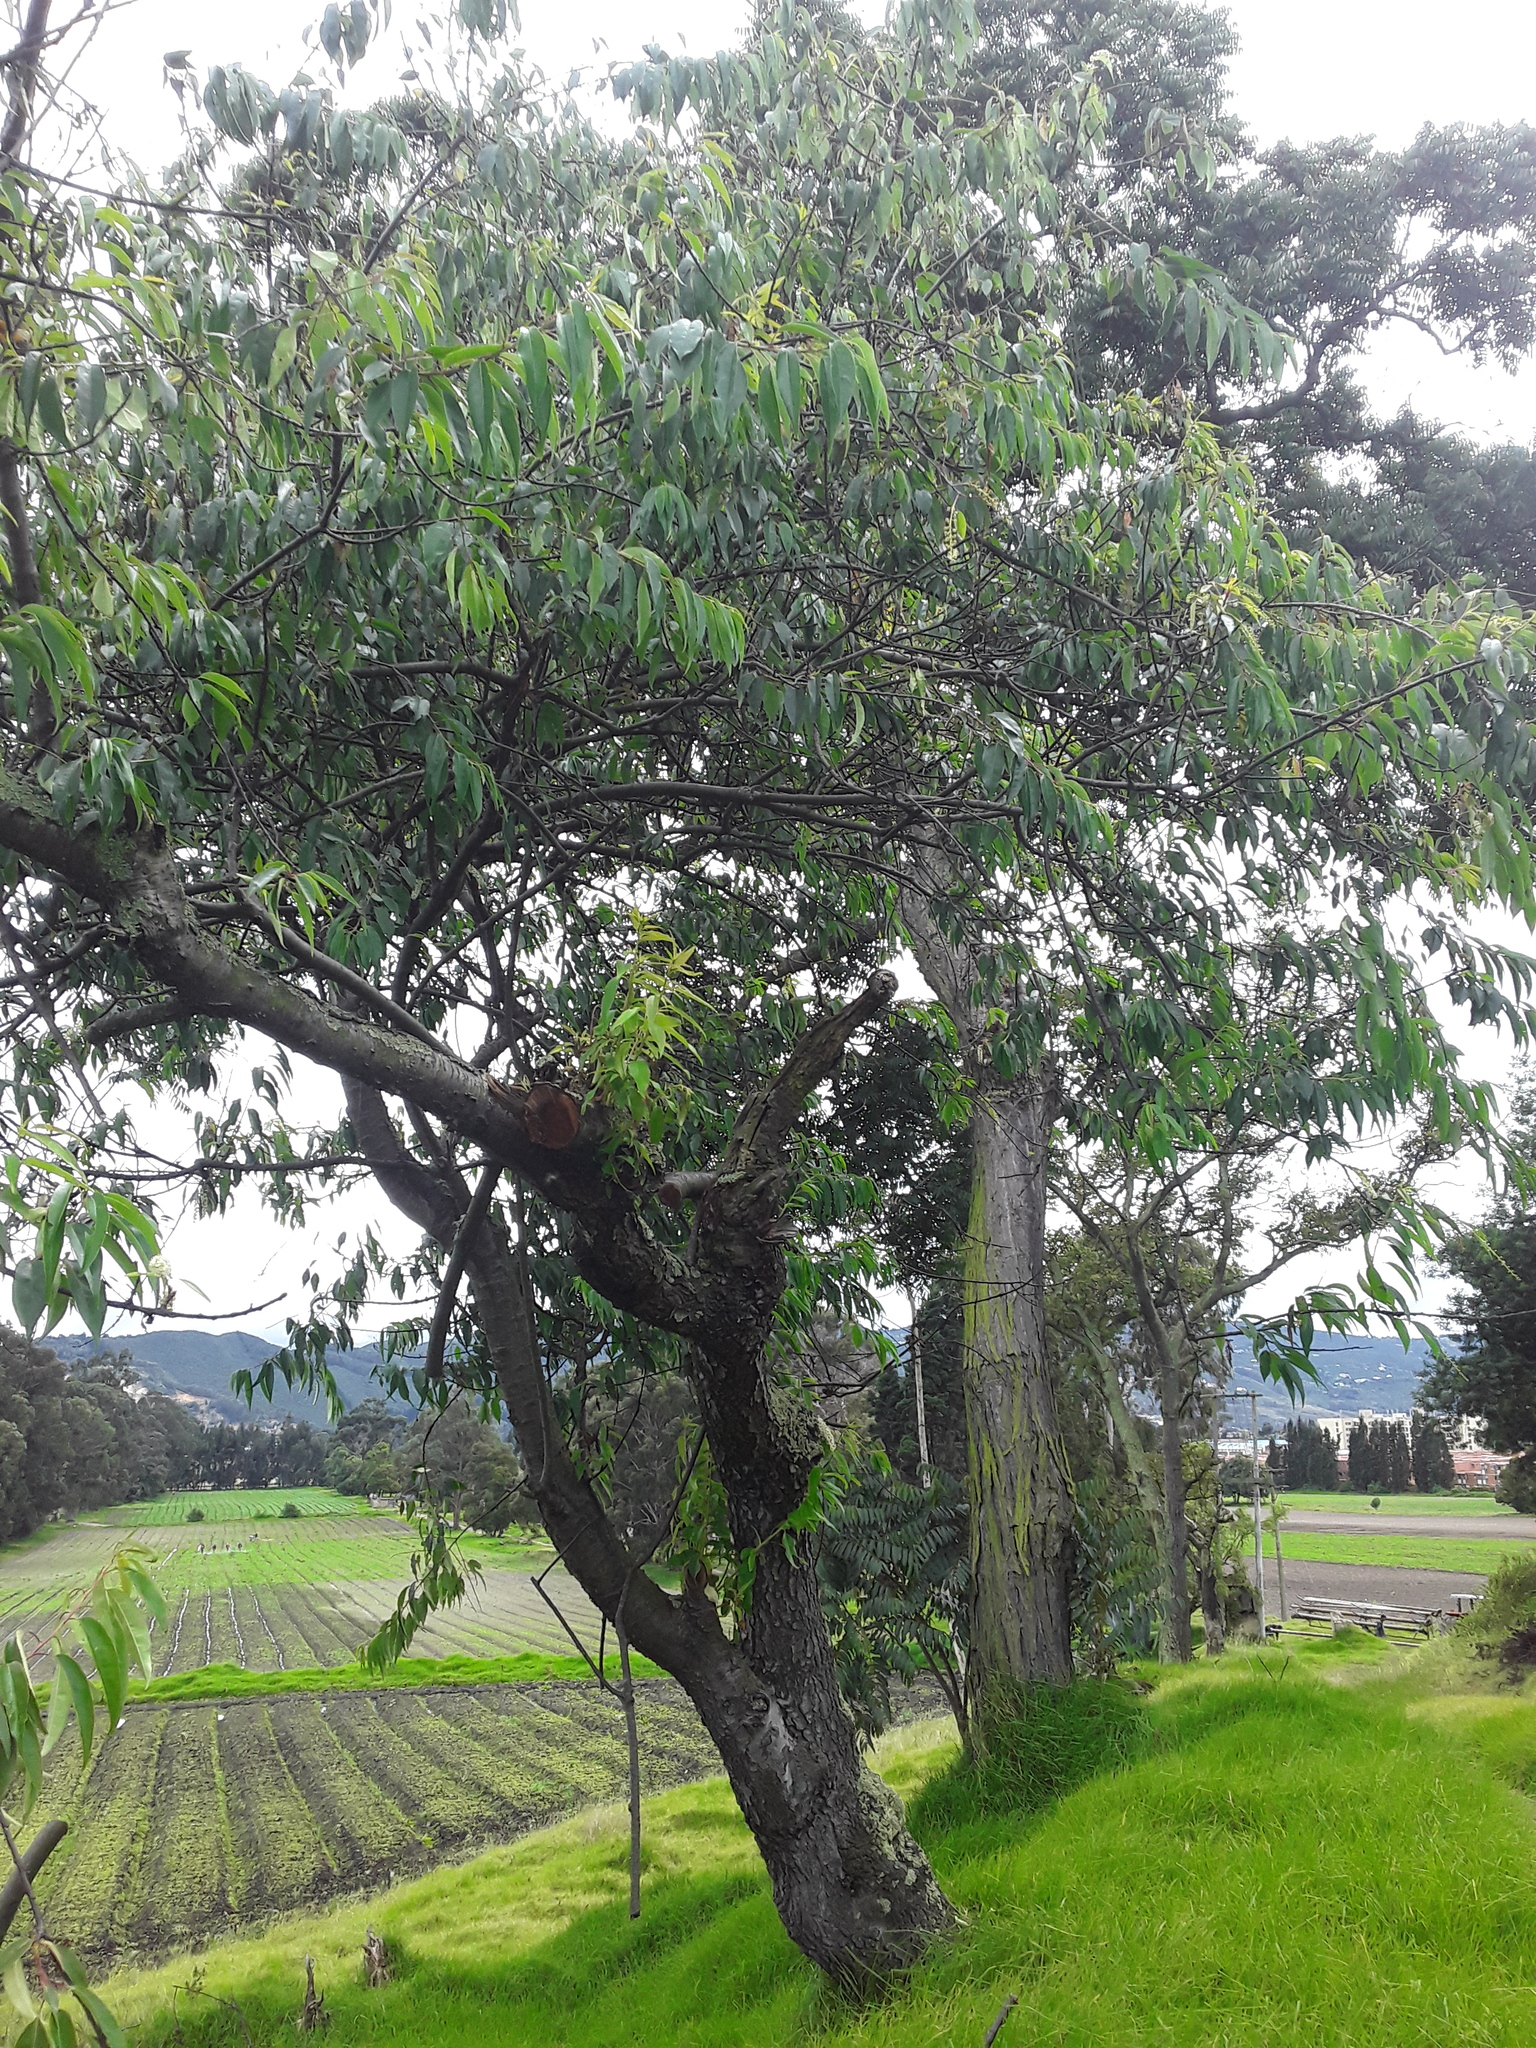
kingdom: Plantae
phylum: Tracheophyta
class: Magnoliopsida
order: Rosales
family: Rosaceae
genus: Prunus
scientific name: Prunus serotina
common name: Black cherry
